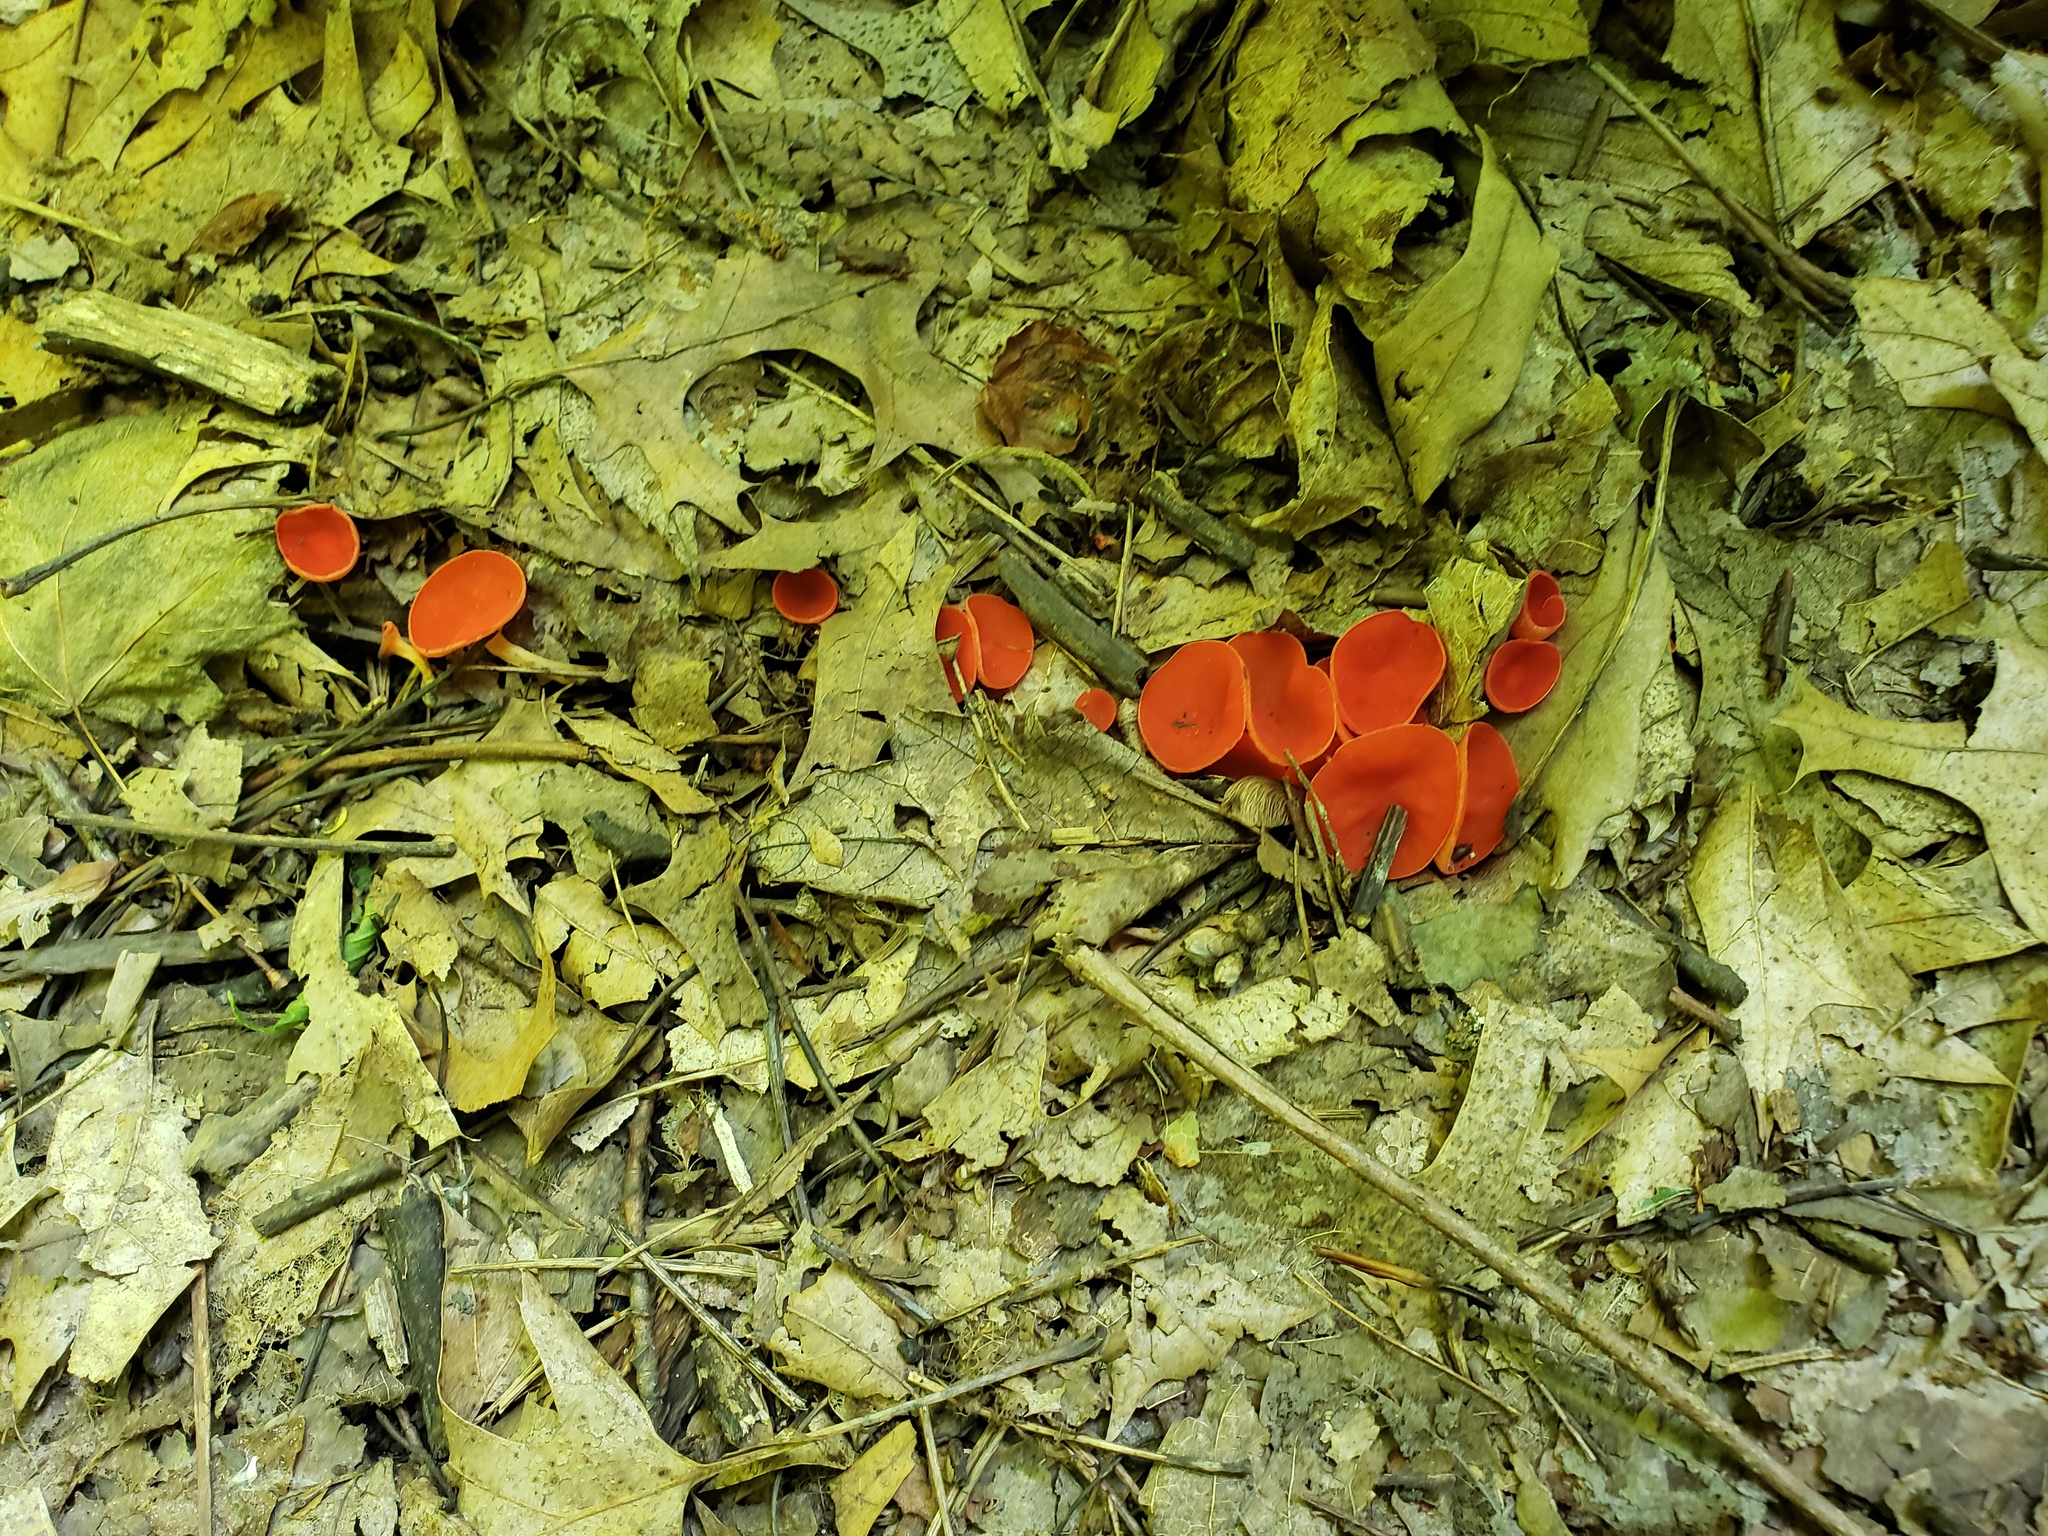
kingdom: Fungi
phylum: Ascomycota
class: Pezizomycetes
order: Pezizales
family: Pyronemataceae
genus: Aleuria
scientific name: Aleuria aurantia
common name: Orange peel fungus
